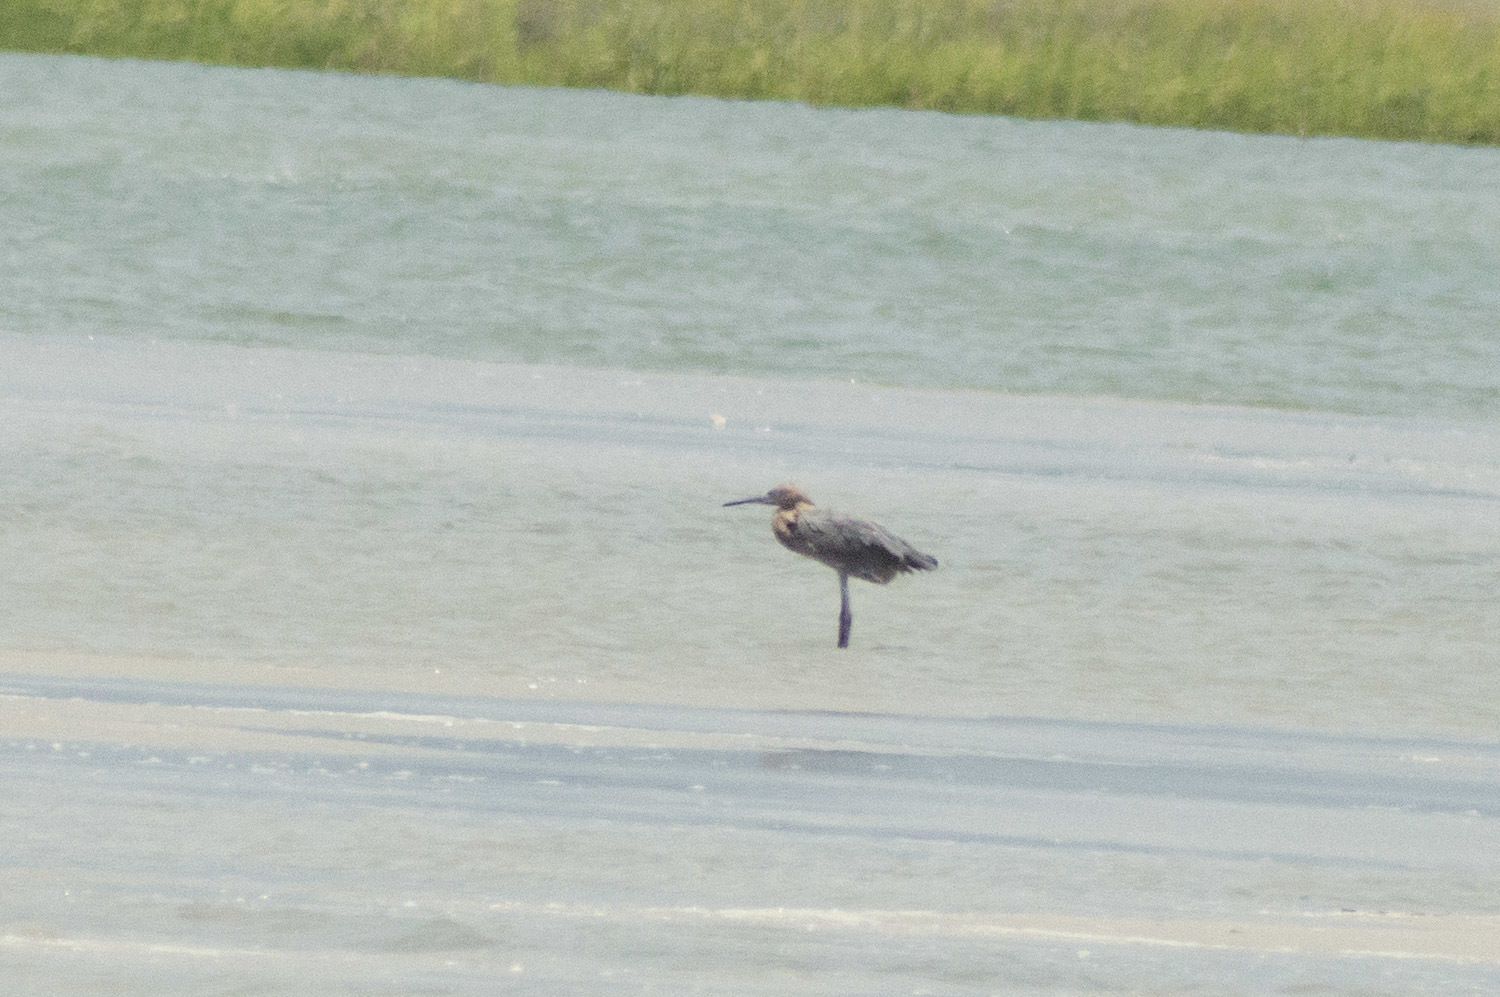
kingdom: Animalia
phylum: Chordata
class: Aves
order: Pelecaniformes
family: Ardeidae
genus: Egretta
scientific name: Egretta rufescens
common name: Reddish egret
